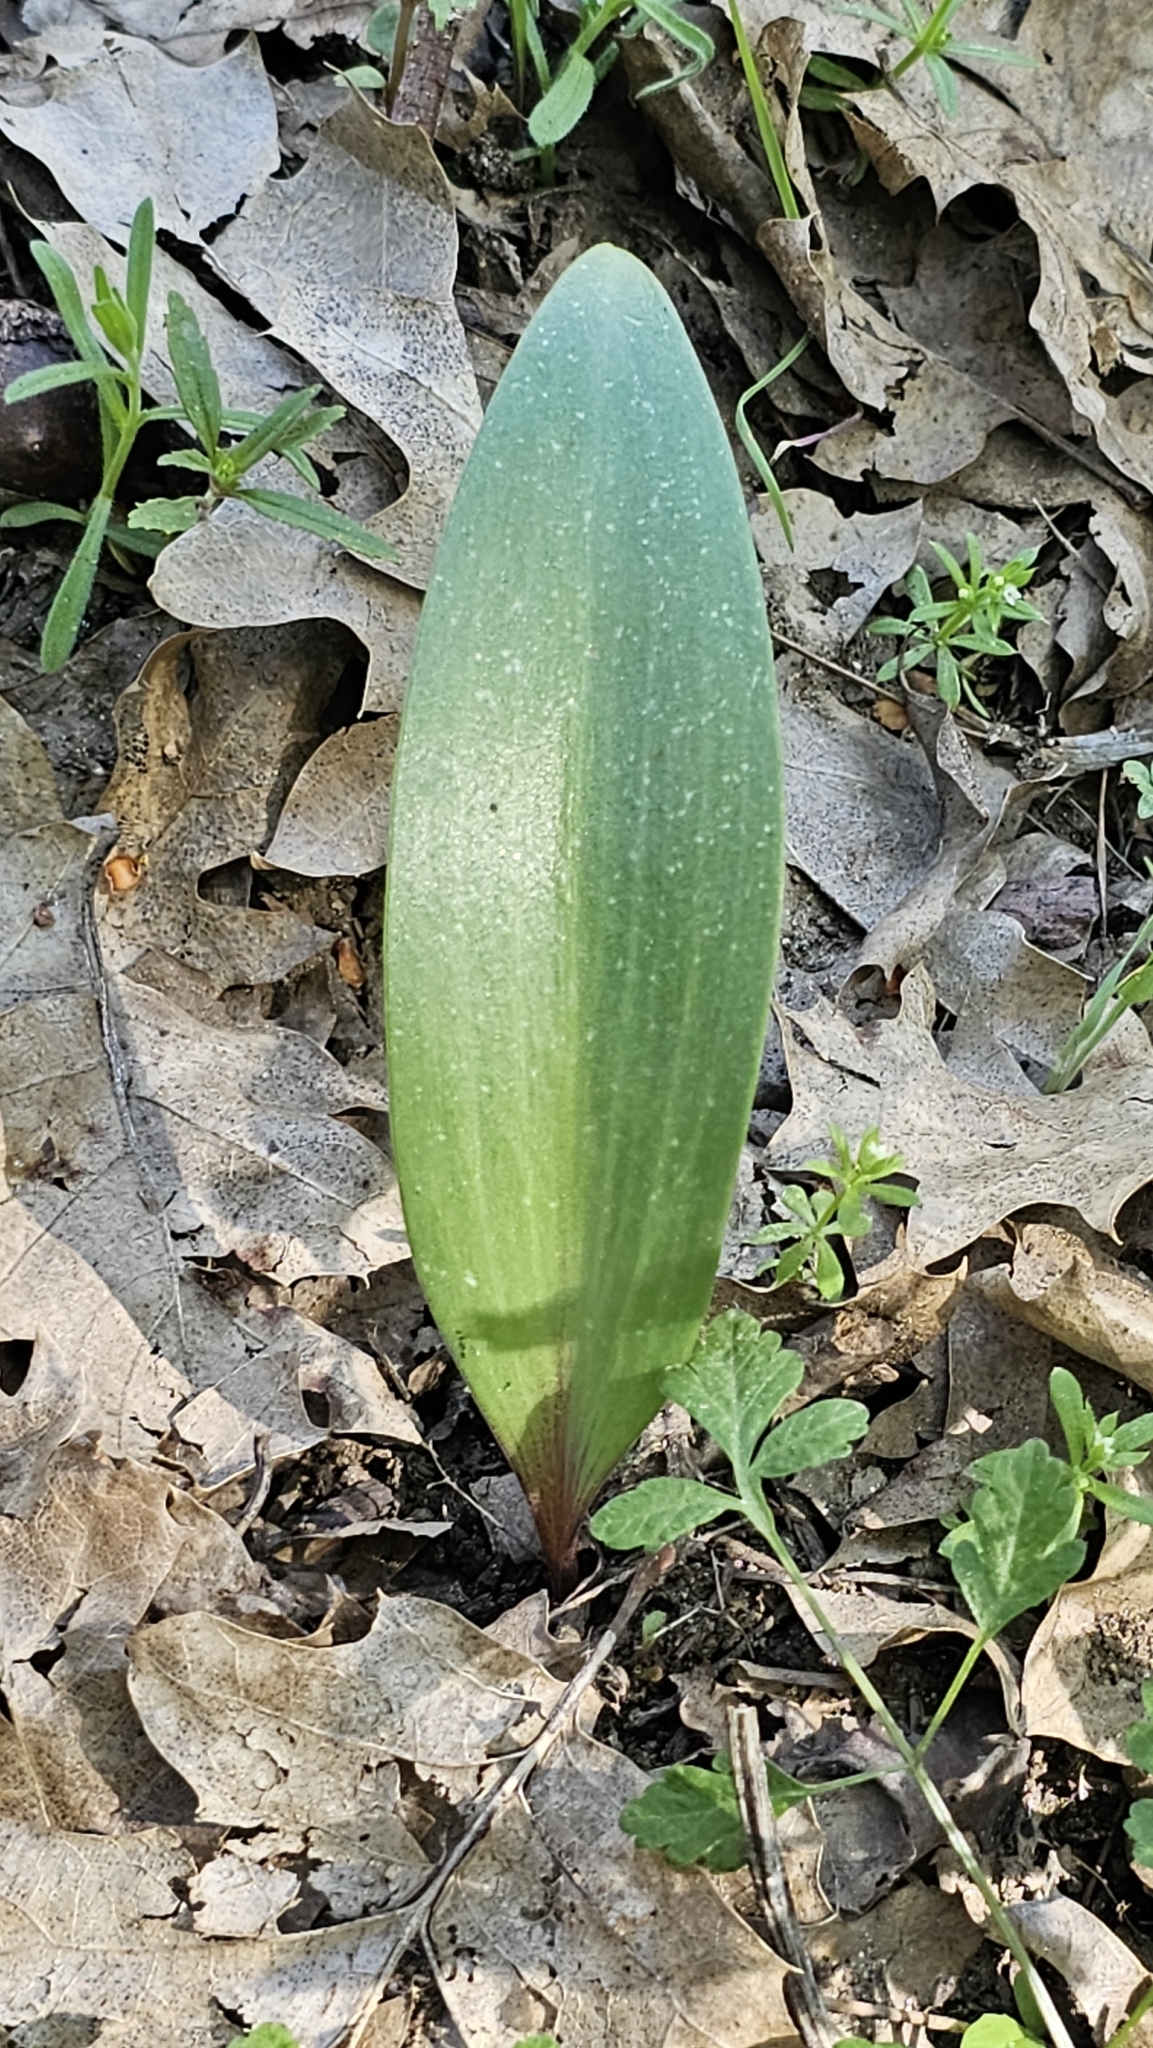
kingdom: Plantae
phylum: Tracheophyta
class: Liliopsida
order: Liliales
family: Liliaceae
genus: Fritillaria
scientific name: Fritillaria micrantha
